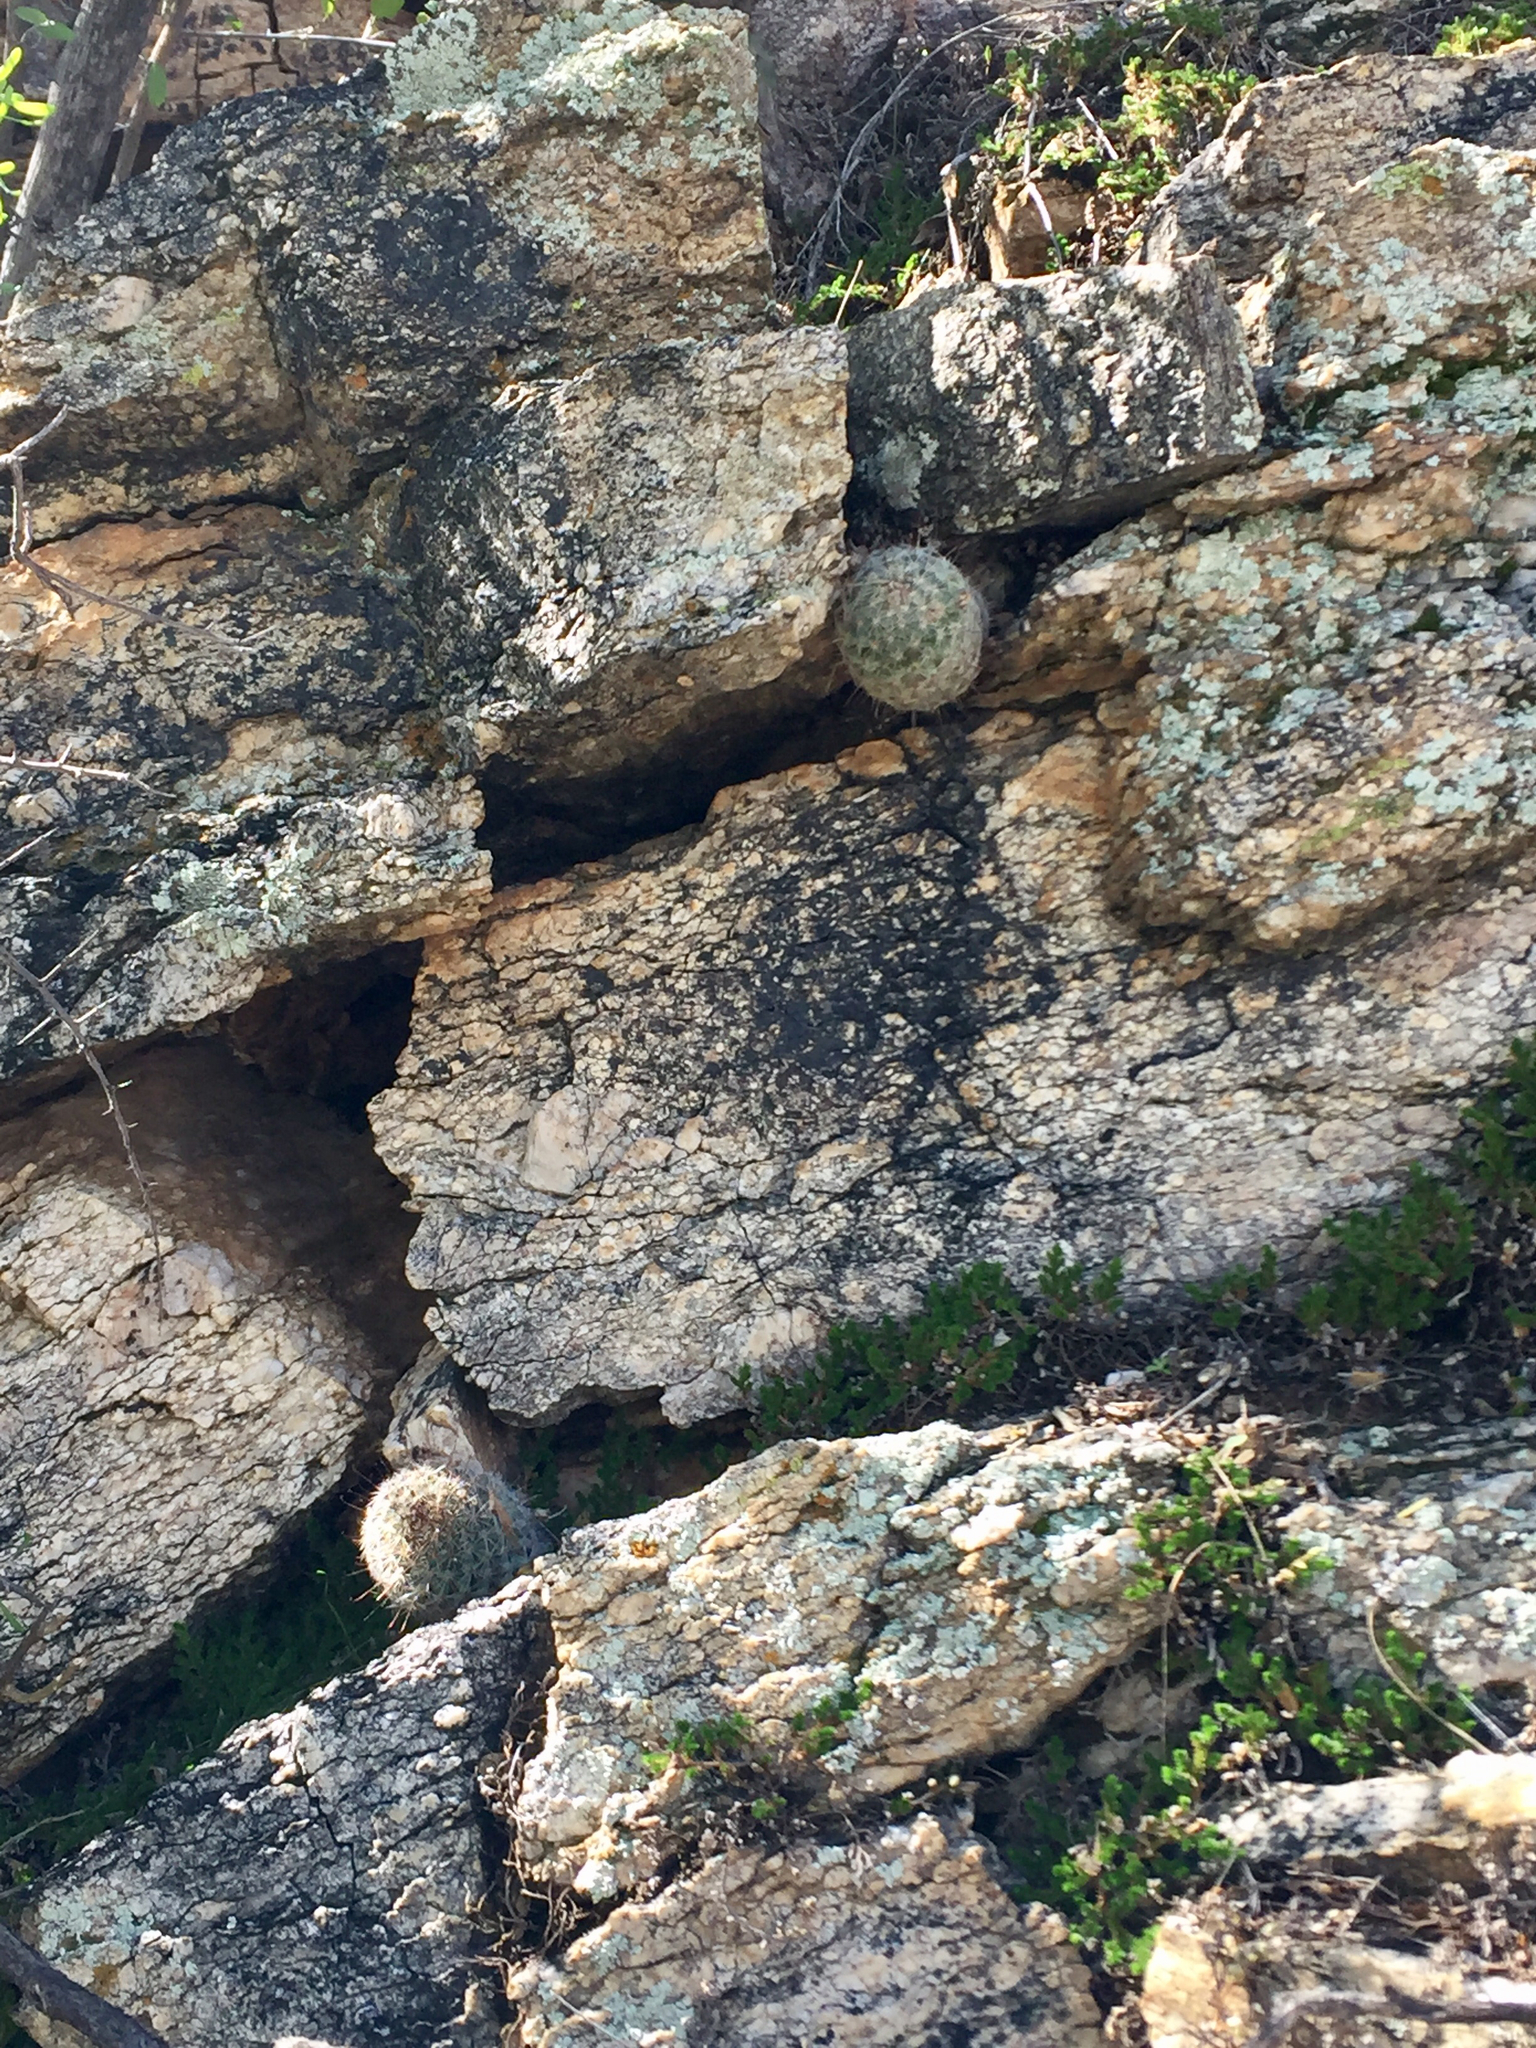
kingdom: Plantae
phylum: Tracheophyta
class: Magnoliopsida
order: Caryophyllales
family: Cactaceae
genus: Cochemiea
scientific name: Cochemiea grahamii
